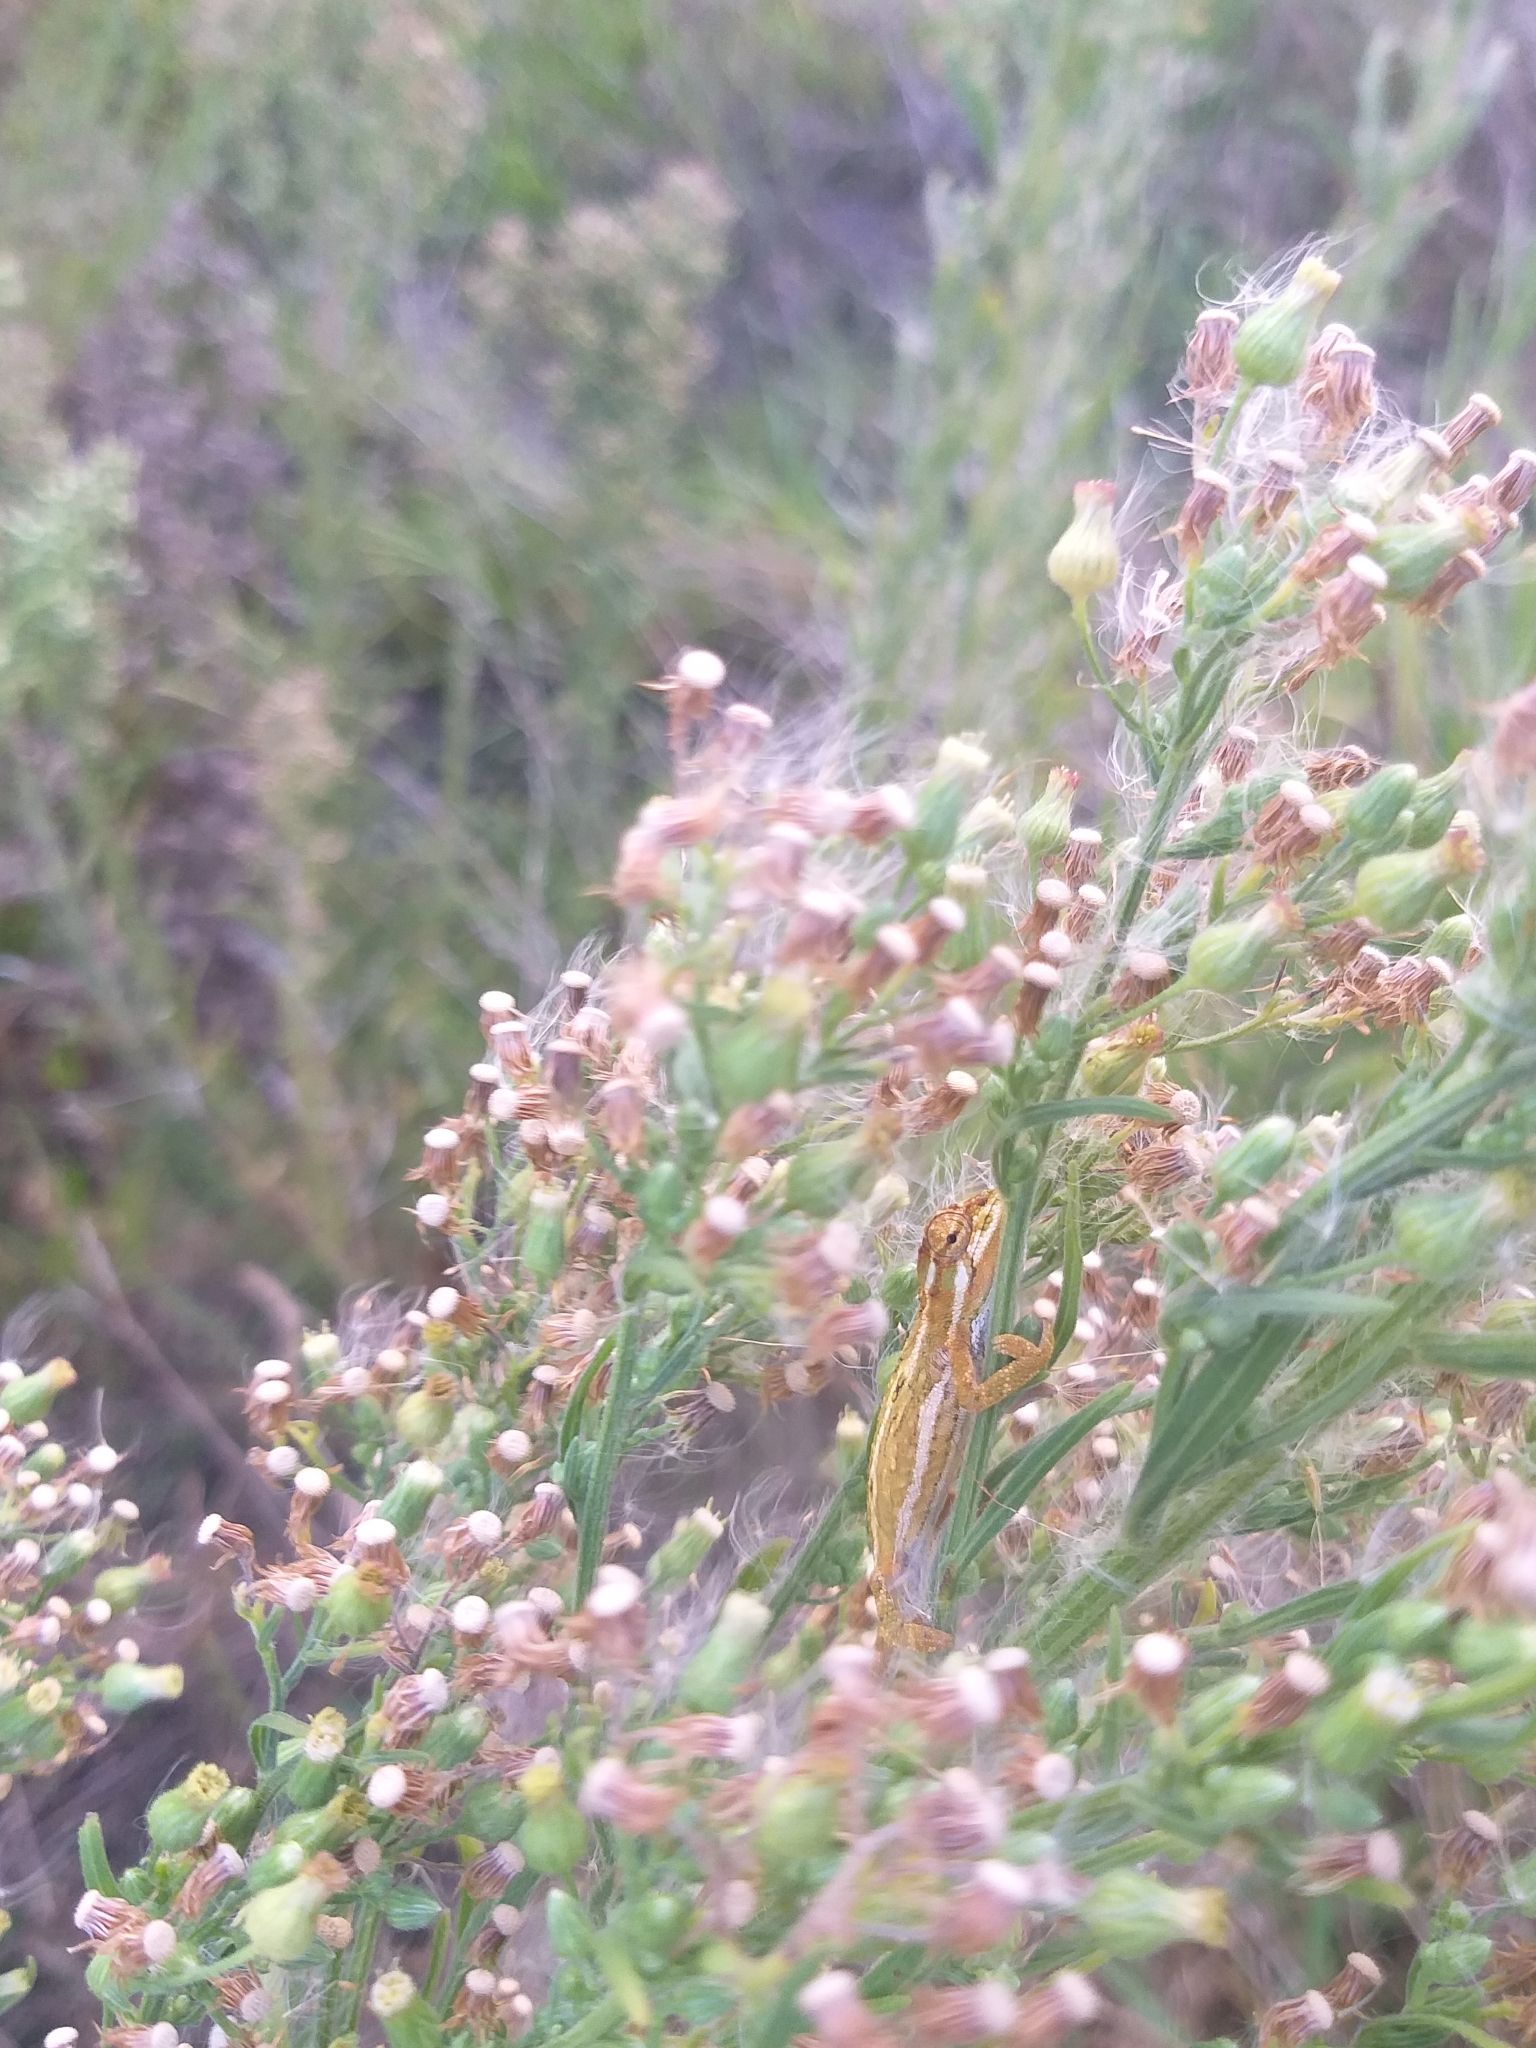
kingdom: Animalia
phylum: Chordata
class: Squamata
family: Chamaeleonidae
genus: Bradypodion
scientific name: Bradypodion pumilum
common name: Cape dwarf chameleon
